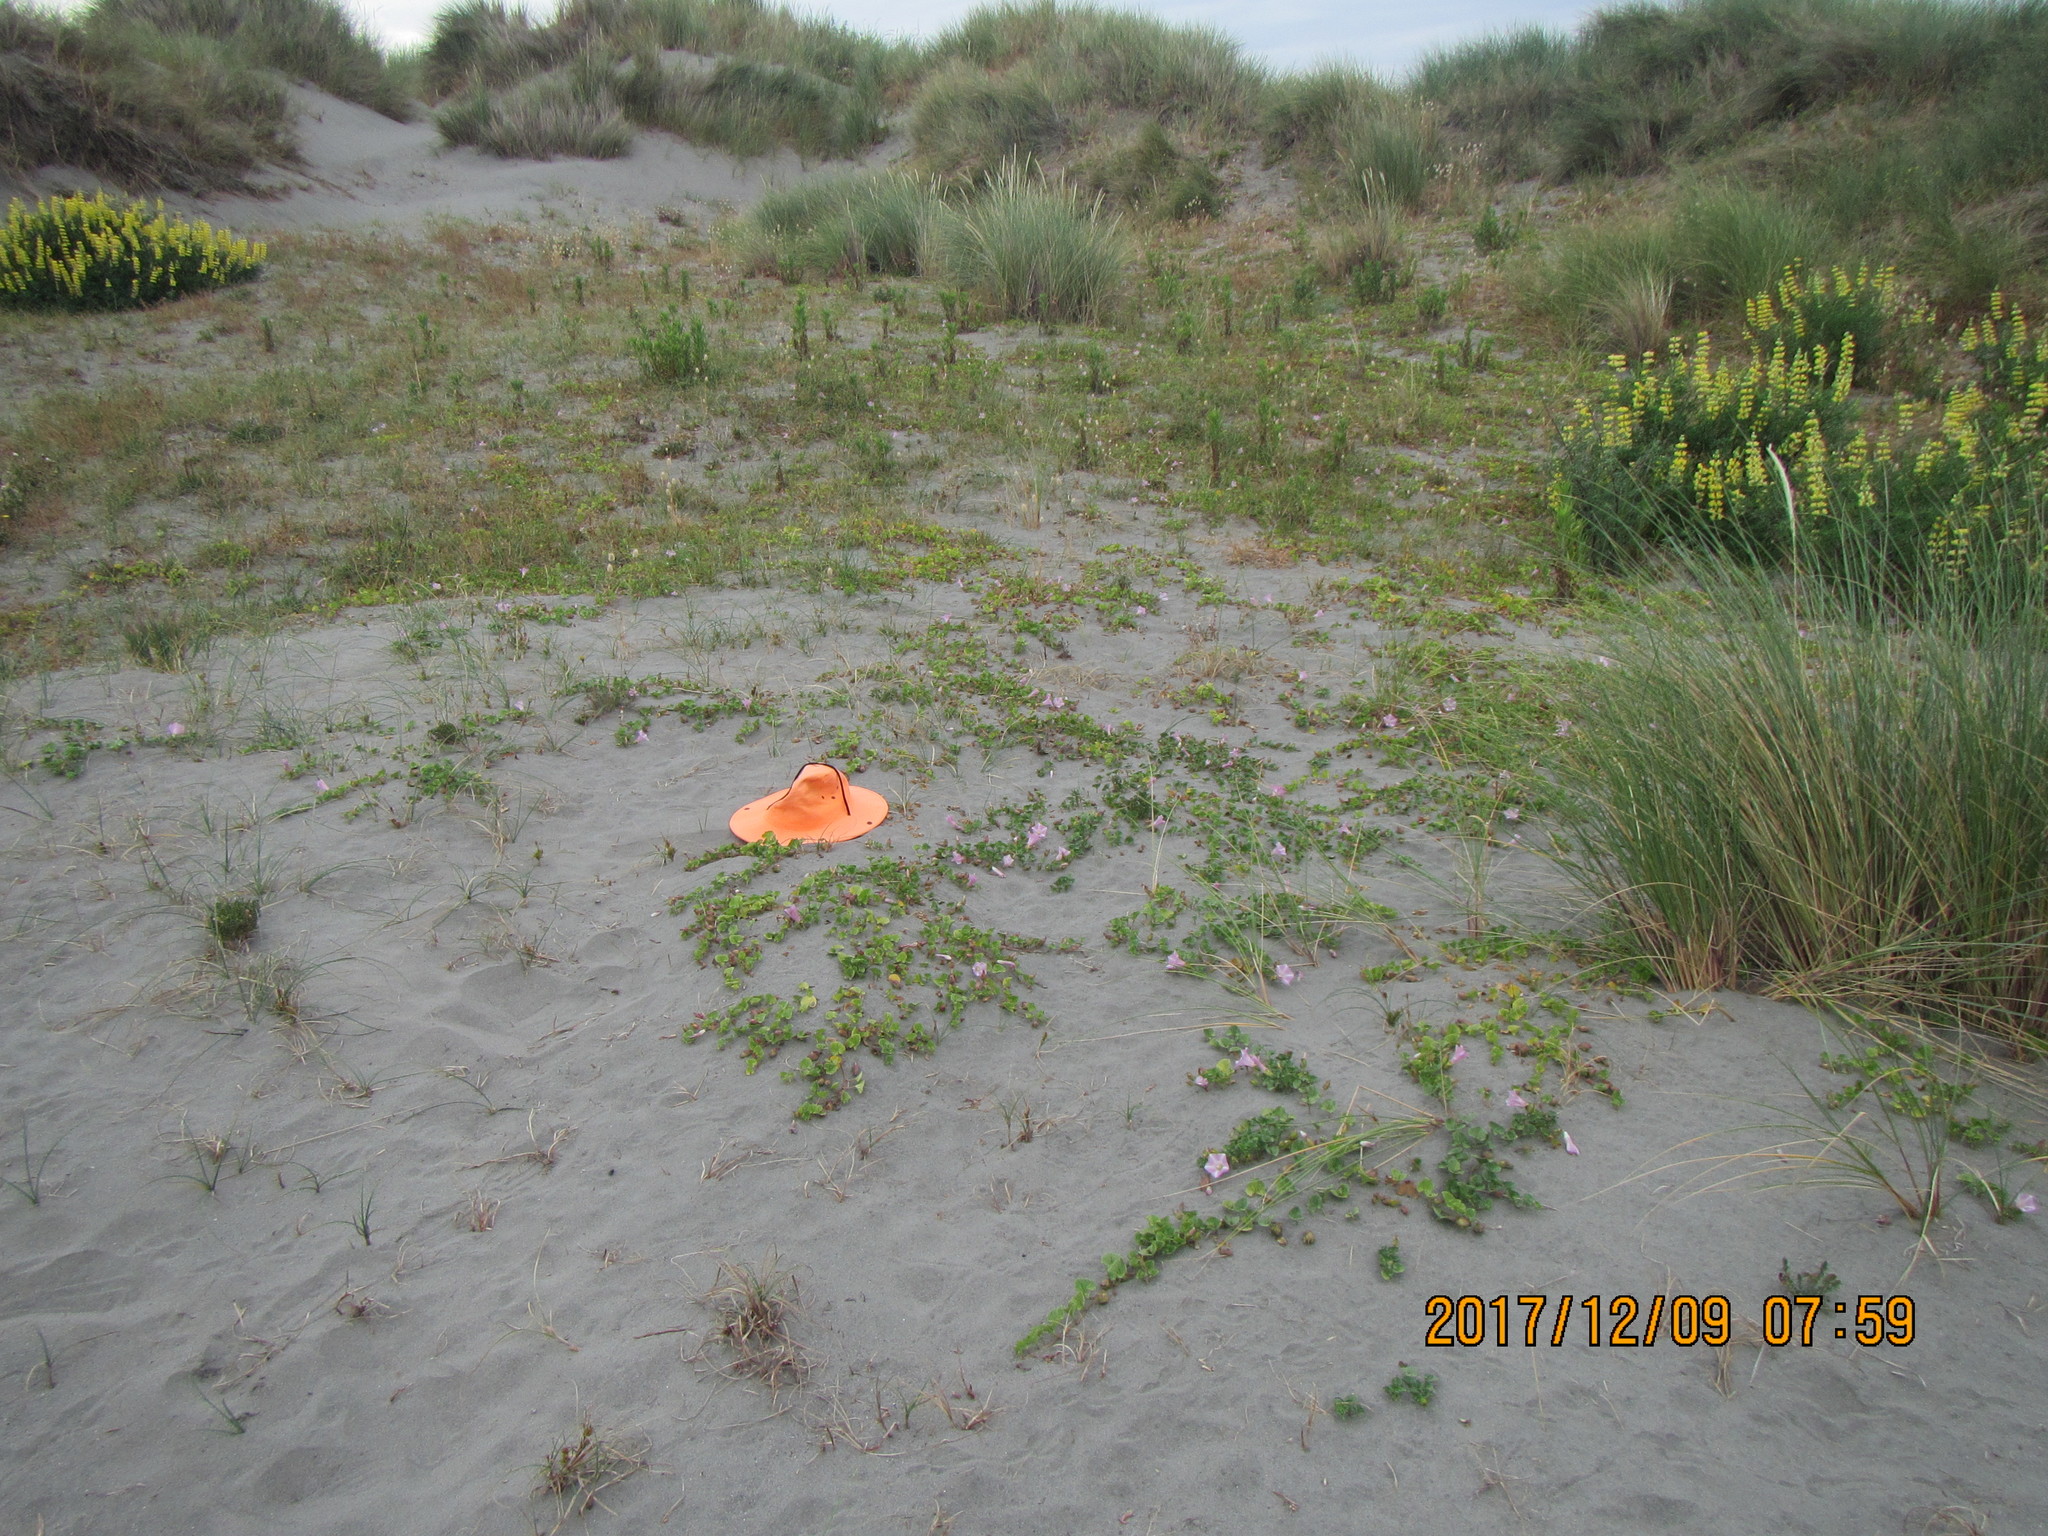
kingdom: Plantae
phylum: Tracheophyta
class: Magnoliopsida
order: Solanales
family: Convolvulaceae
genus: Calystegia
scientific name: Calystegia soldanella
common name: Sea bindweed
